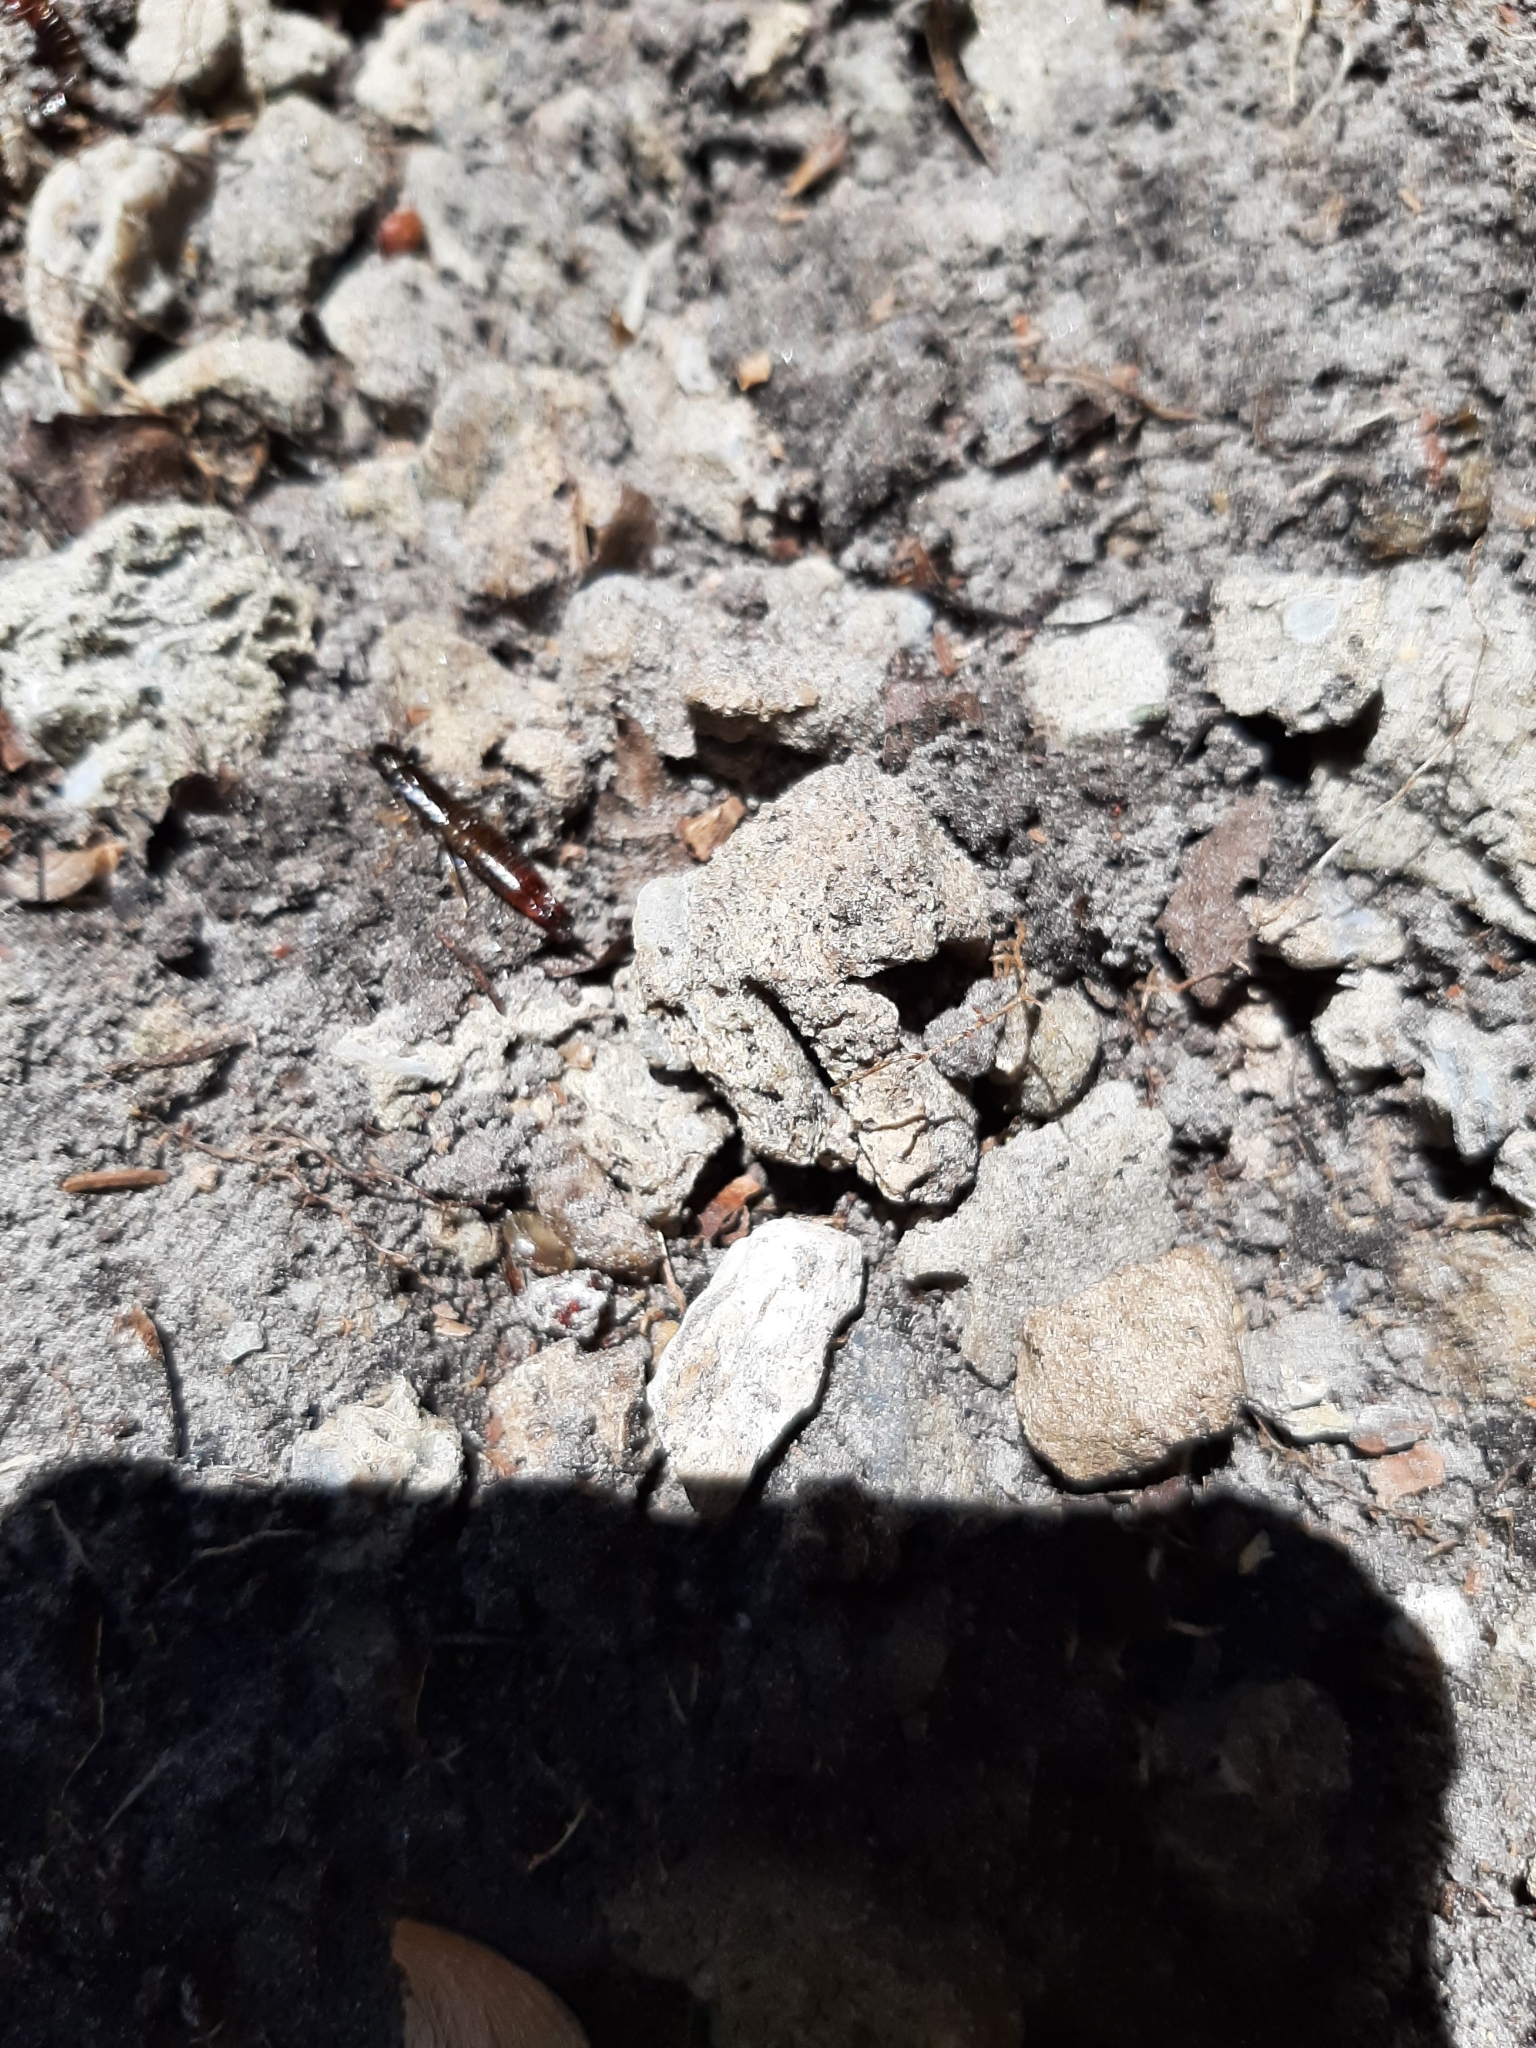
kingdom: Animalia
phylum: Arthropoda
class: Insecta
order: Dermaptera
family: Anisolabididae
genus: Euborellia
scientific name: Euborellia annulipes
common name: Ringlegged earwig
